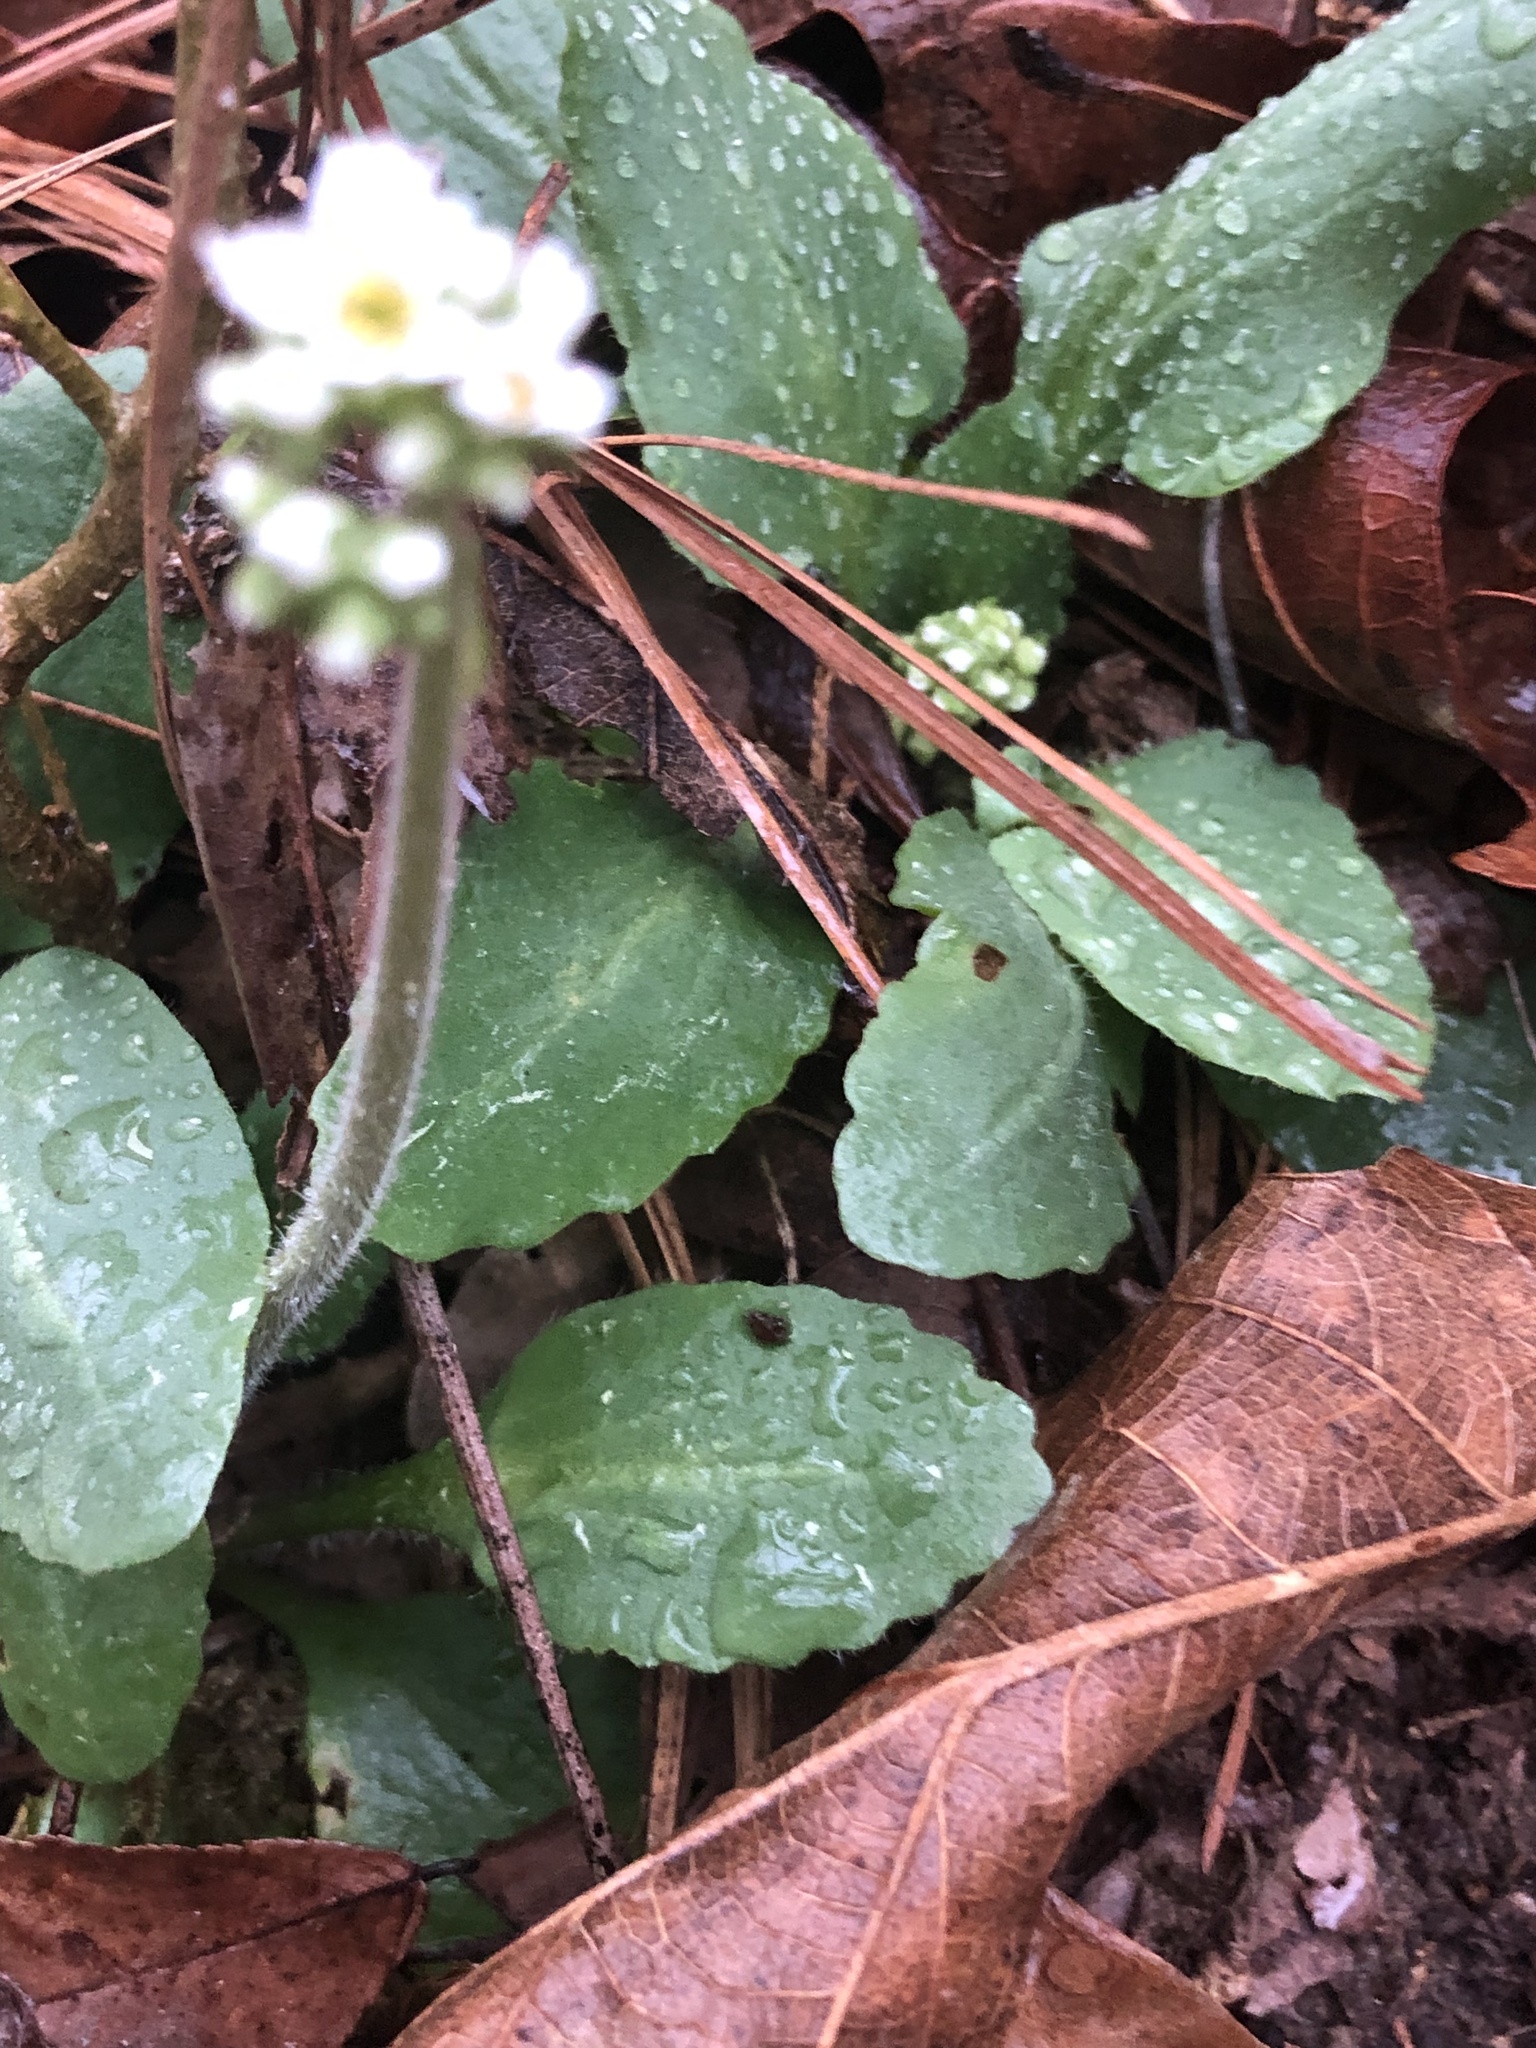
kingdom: Plantae
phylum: Tracheophyta
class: Magnoliopsida
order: Saxifragales
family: Saxifragaceae
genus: Micranthes
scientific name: Micranthes virginiensis
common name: Early saxifrage
